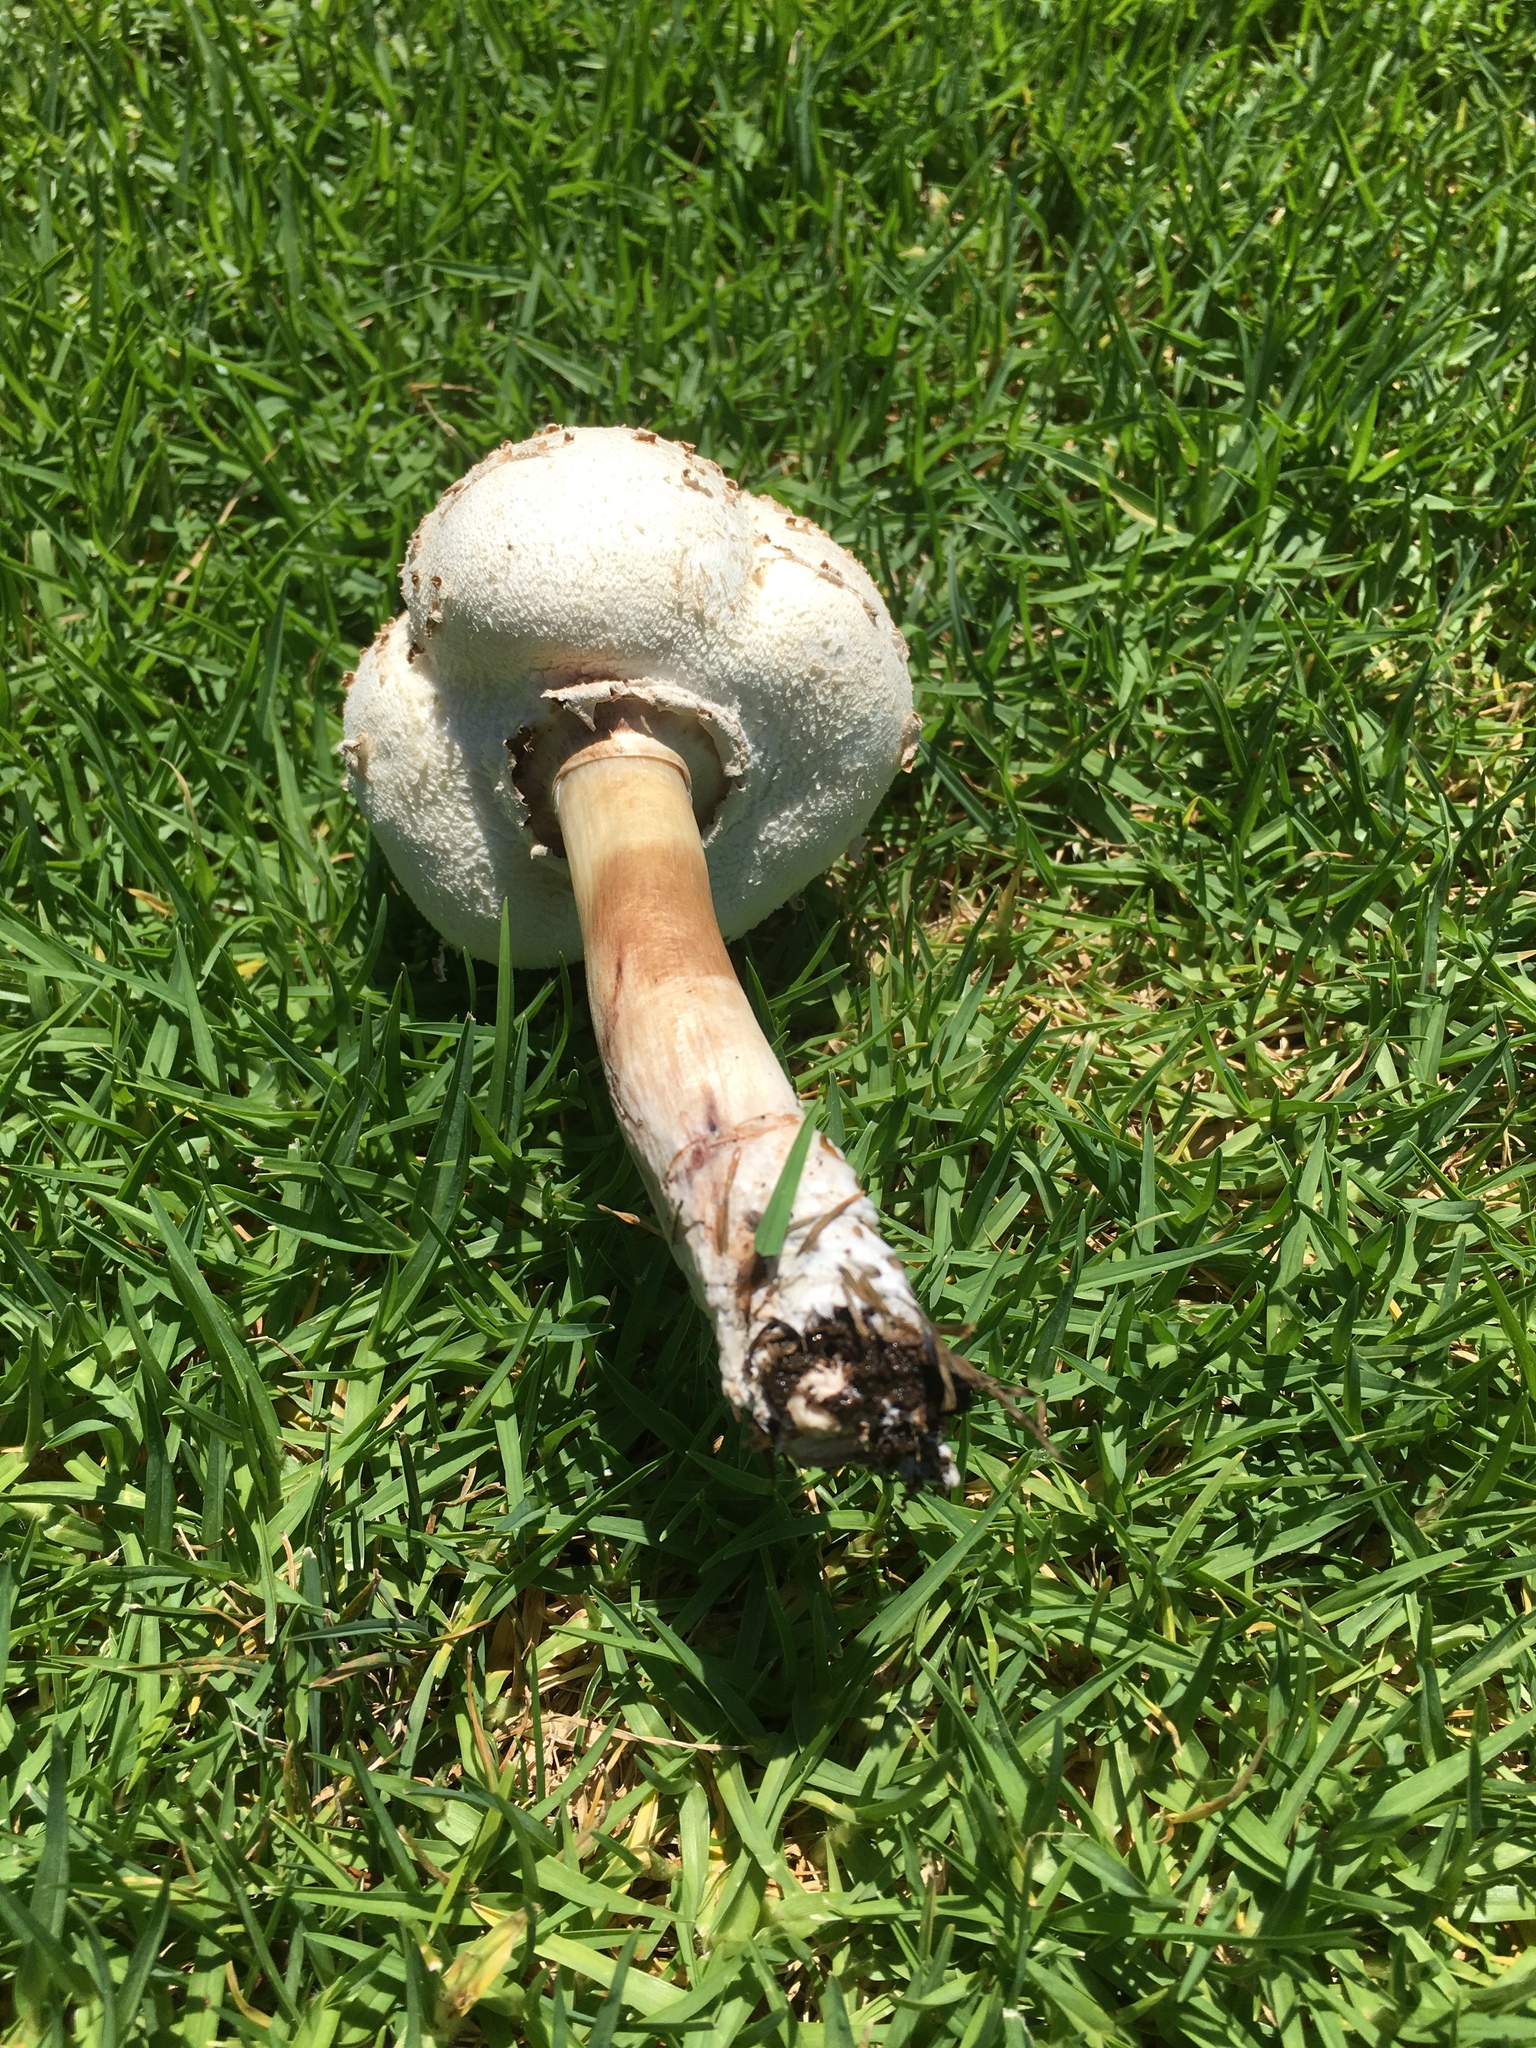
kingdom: Fungi
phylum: Basidiomycota
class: Agaricomycetes
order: Agaricales
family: Agaricaceae
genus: Chlorophyllum
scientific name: Chlorophyllum molybdites
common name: False parasol
